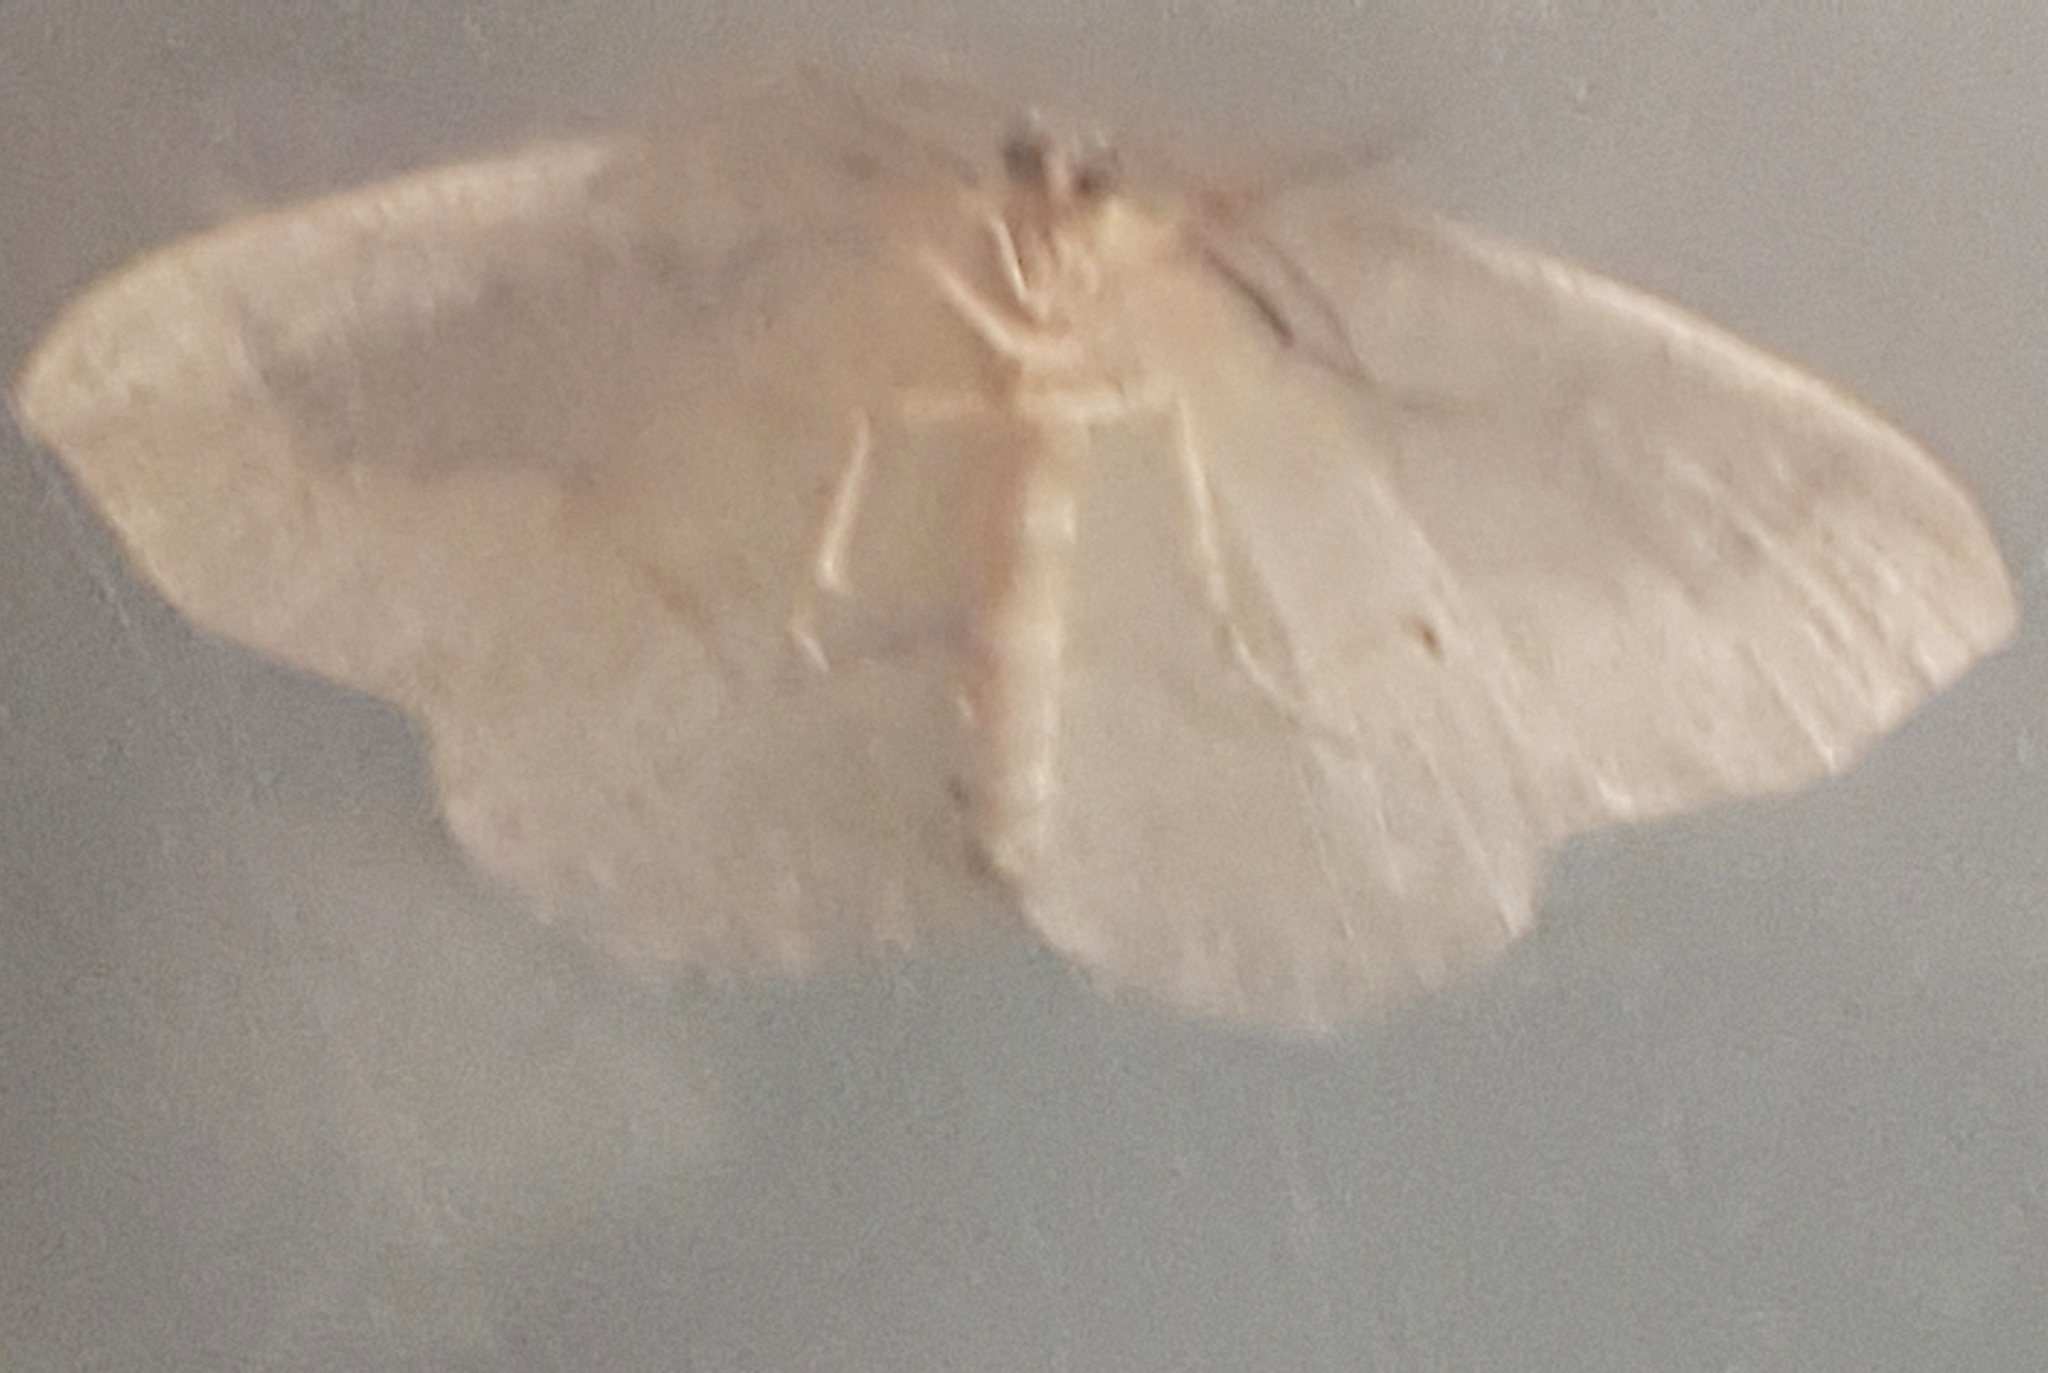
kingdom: Animalia
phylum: Arthropoda
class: Insecta
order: Lepidoptera
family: Geometridae
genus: Lambdina
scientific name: Lambdina fiscellaria
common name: Hemlock looper
